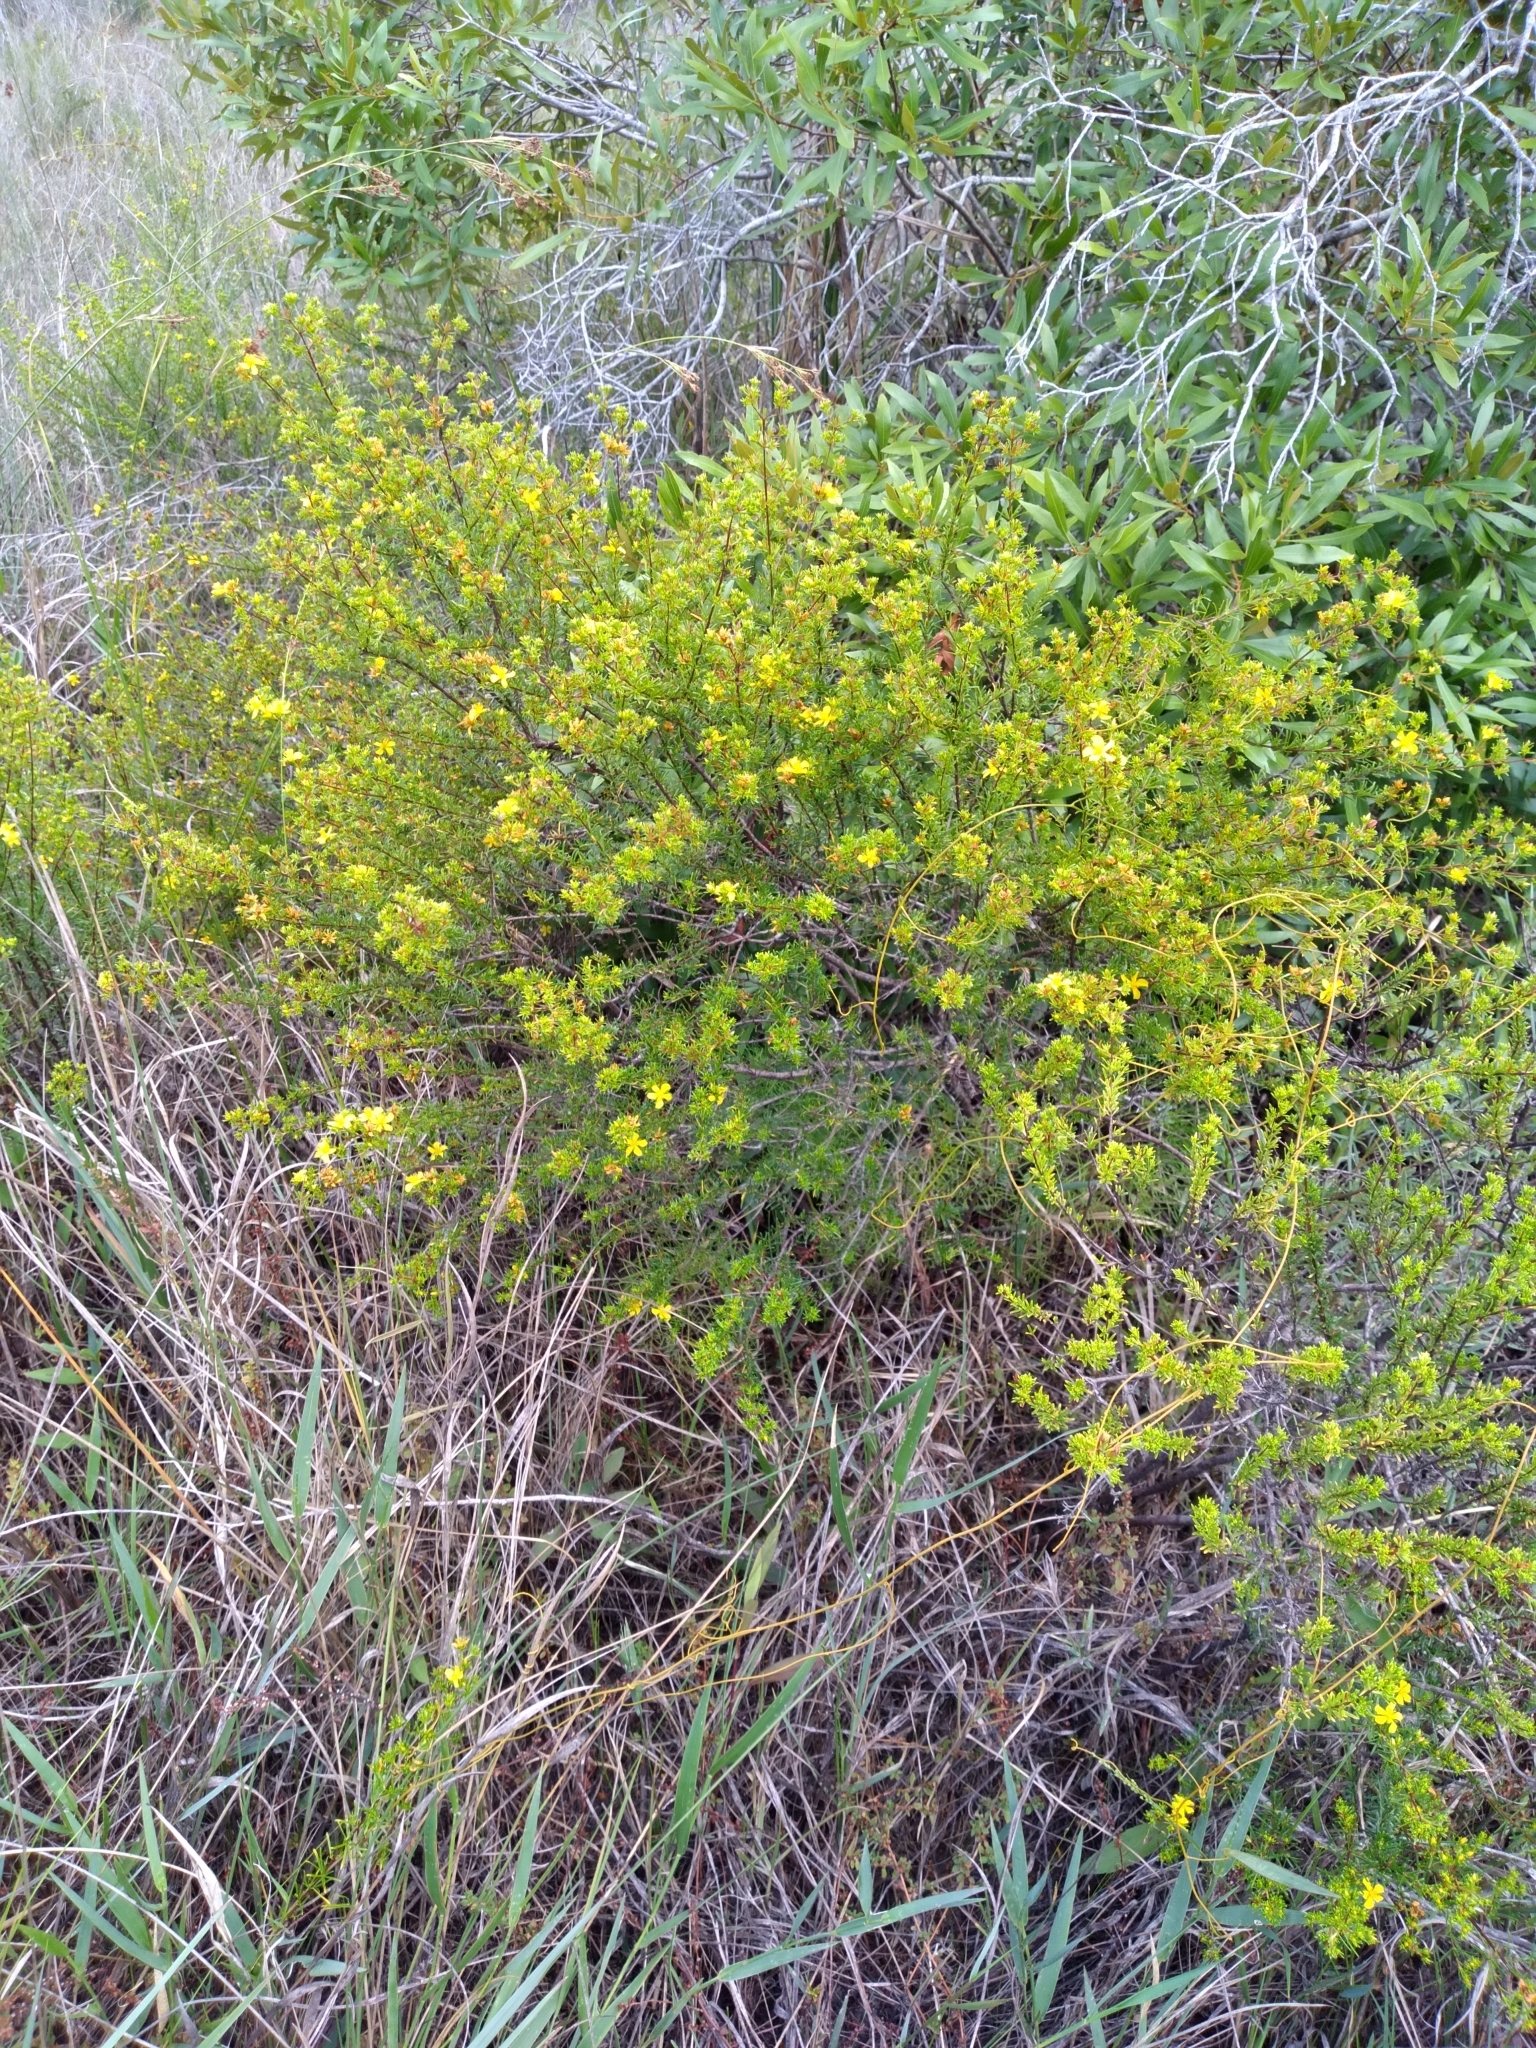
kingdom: Plantae
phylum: Tracheophyta
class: Magnoliopsida
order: Malpighiales
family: Hypericaceae
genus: Hypericum
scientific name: Hypericum limosum
